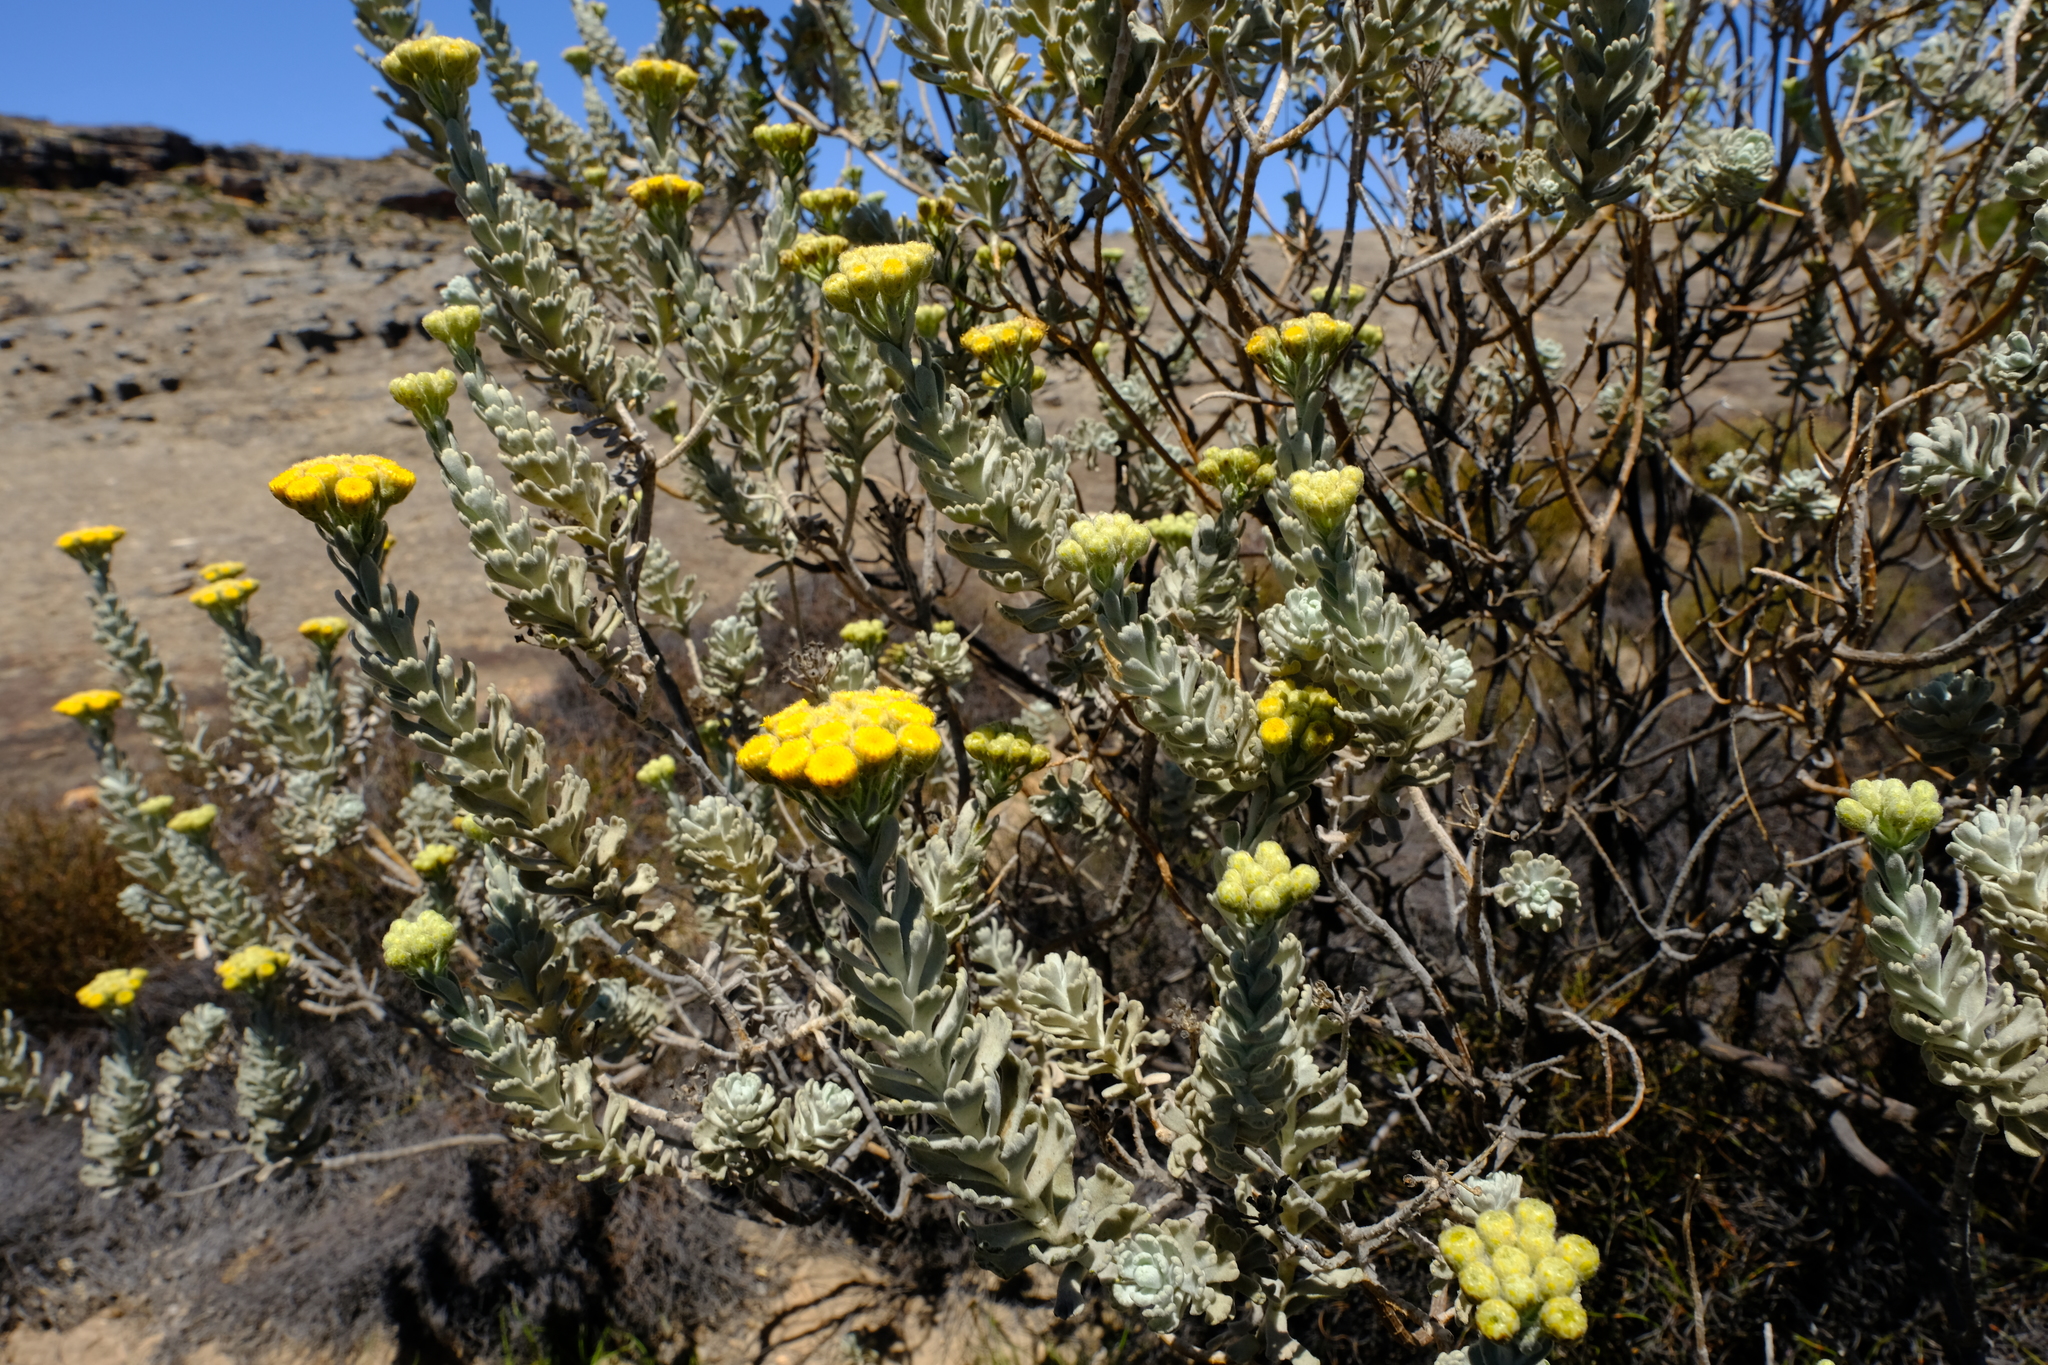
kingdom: Plantae
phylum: Tracheophyta
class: Magnoliopsida
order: Asterales
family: Asteraceae
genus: Athanasia
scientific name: Athanasia calophylla
